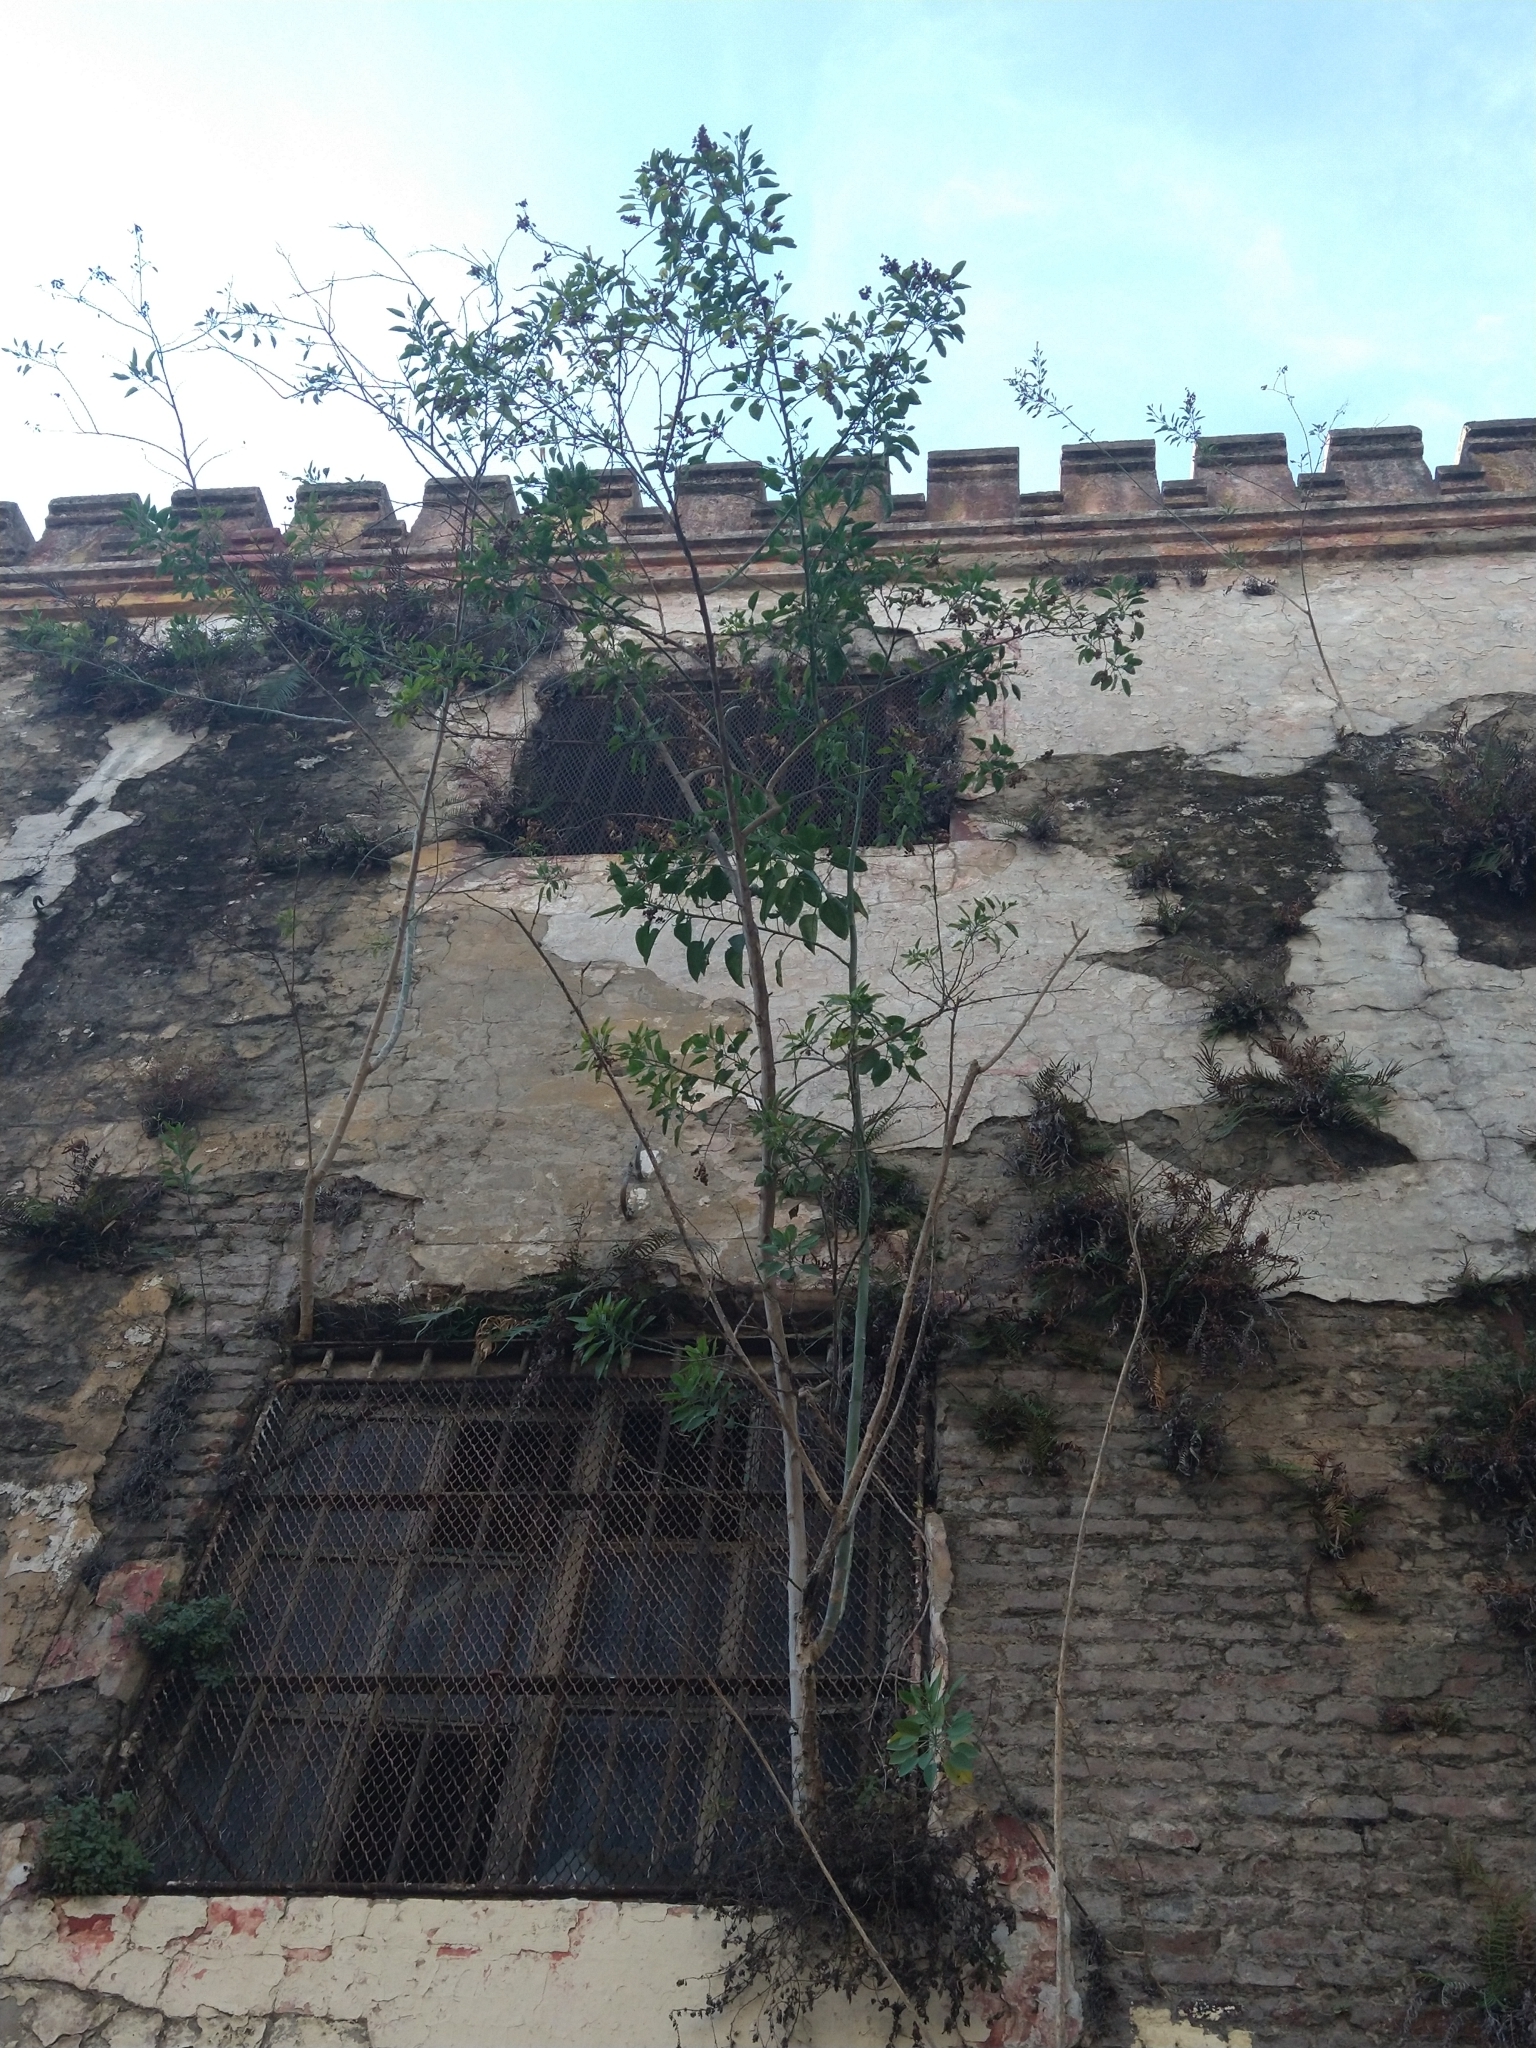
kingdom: Plantae
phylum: Tracheophyta
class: Magnoliopsida
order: Solanales
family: Solanaceae
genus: Nicotiana
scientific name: Nicotiana glauca
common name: Tree tobacco
